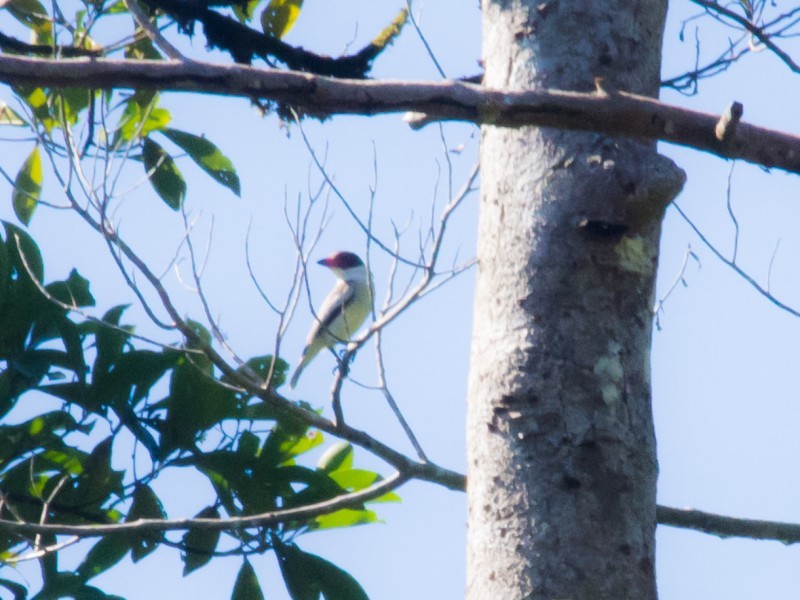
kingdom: Animalia
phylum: Chordata
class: Aves
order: Passeriformes
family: Cotingidae
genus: Tityra
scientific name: Tityra semifasciata
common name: Masked tityra
